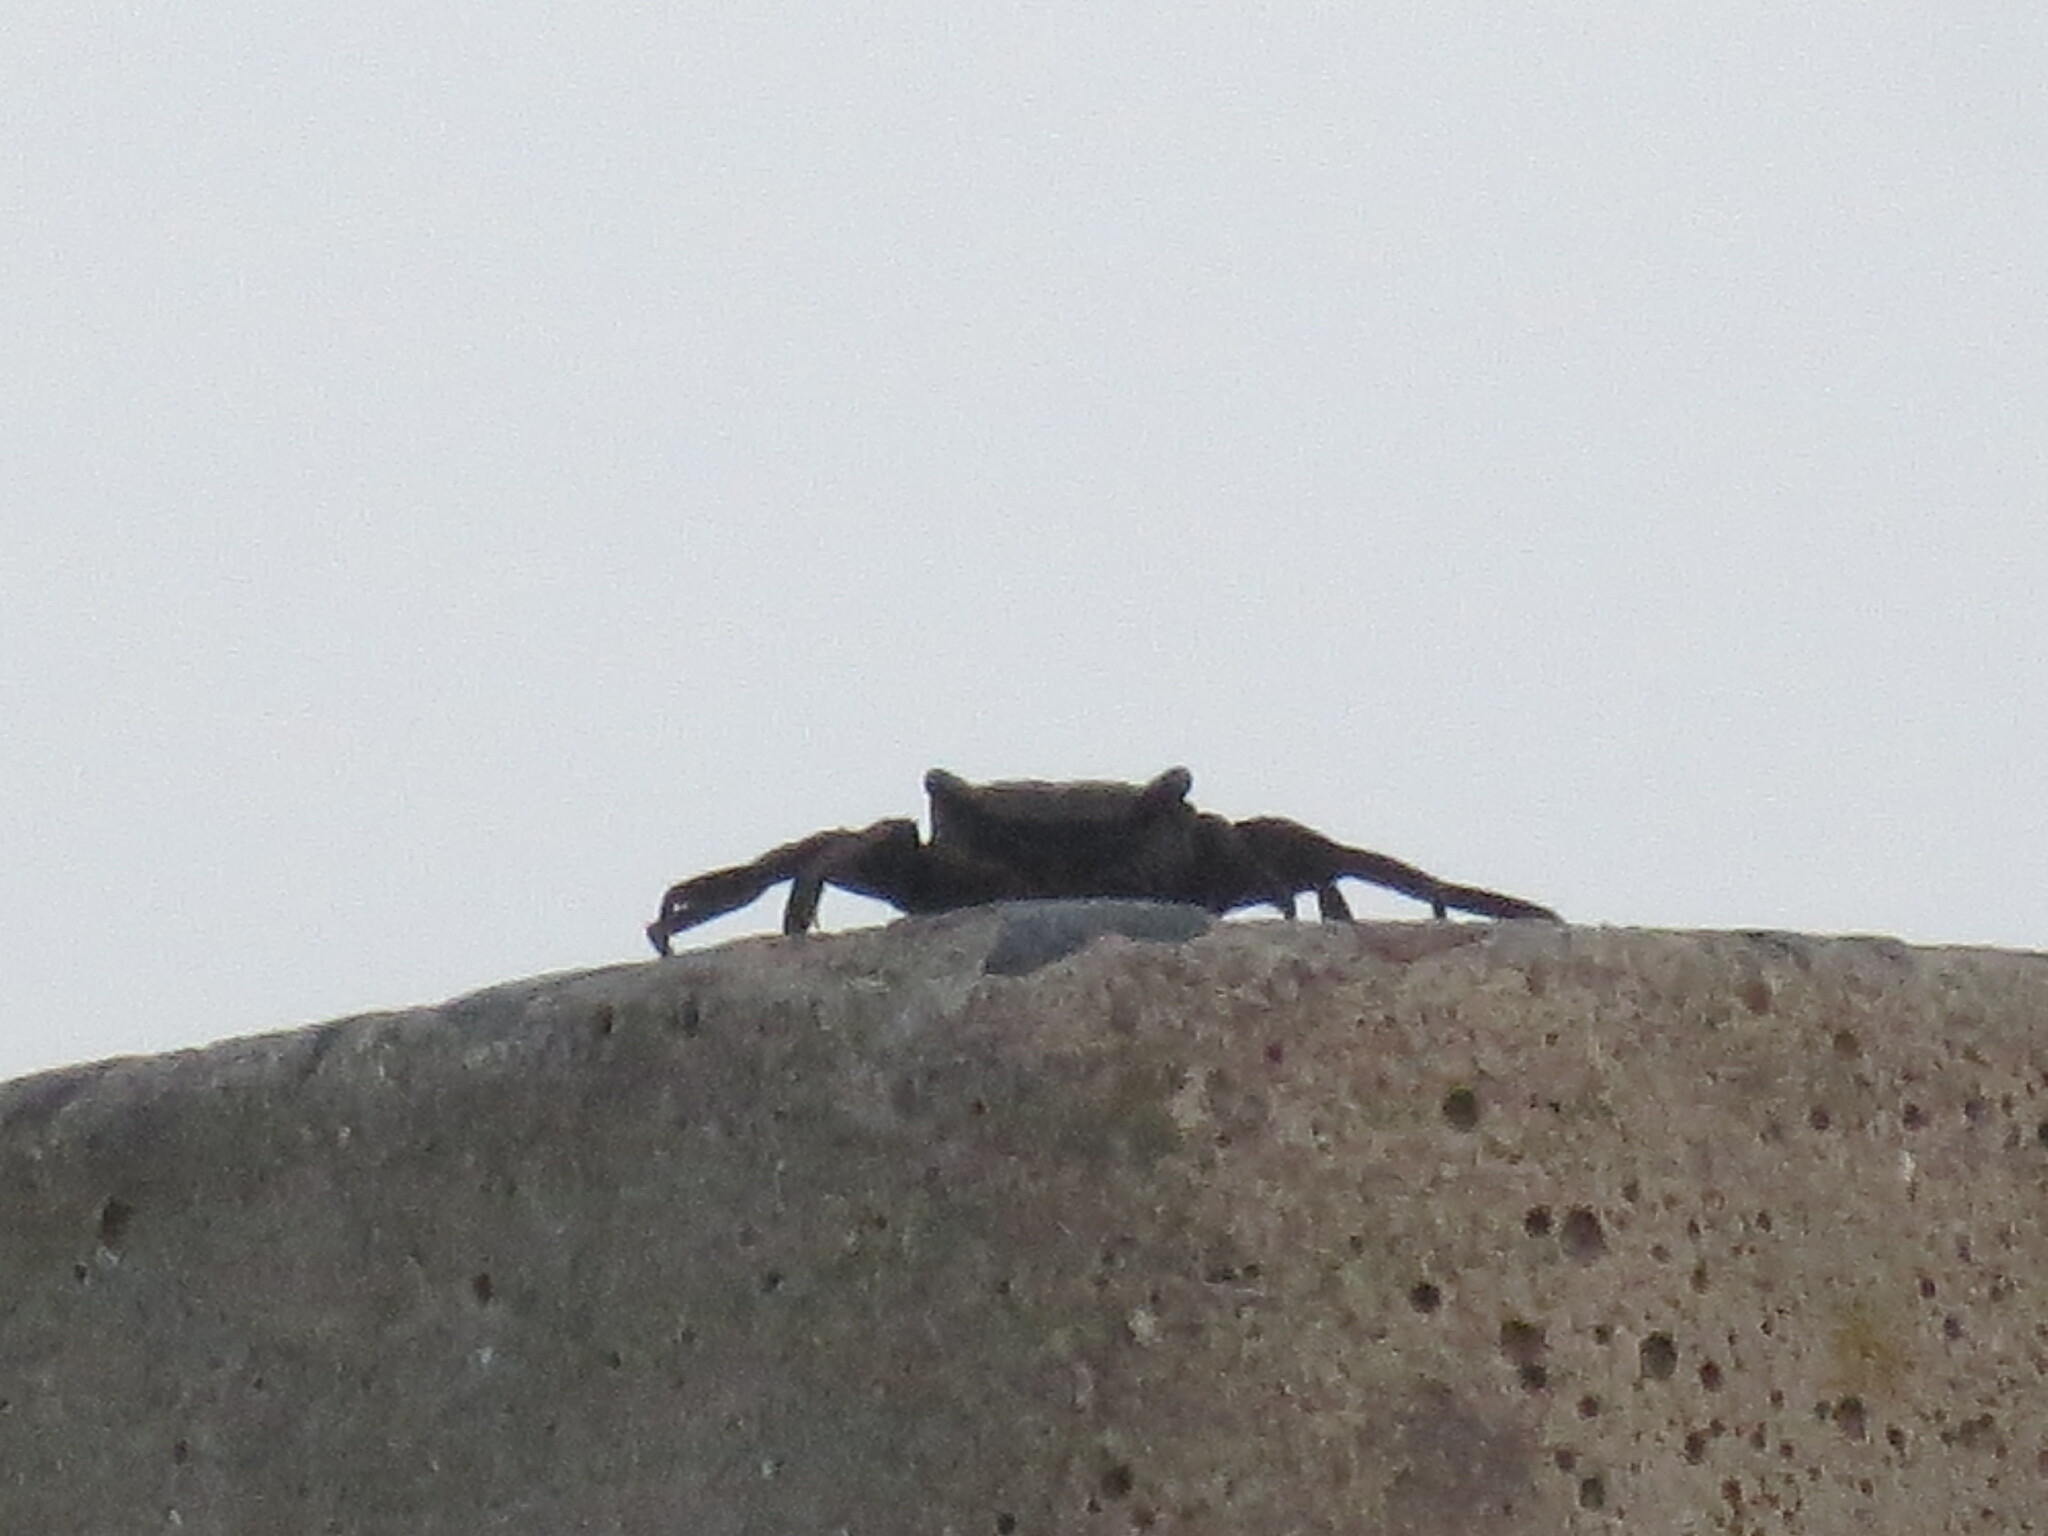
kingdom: Animalia
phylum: Arthropoda
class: Malacostraca
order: Decapoda
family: Sesarmidae
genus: Armases
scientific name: Armases cinereum
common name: Squareback marsh crab
